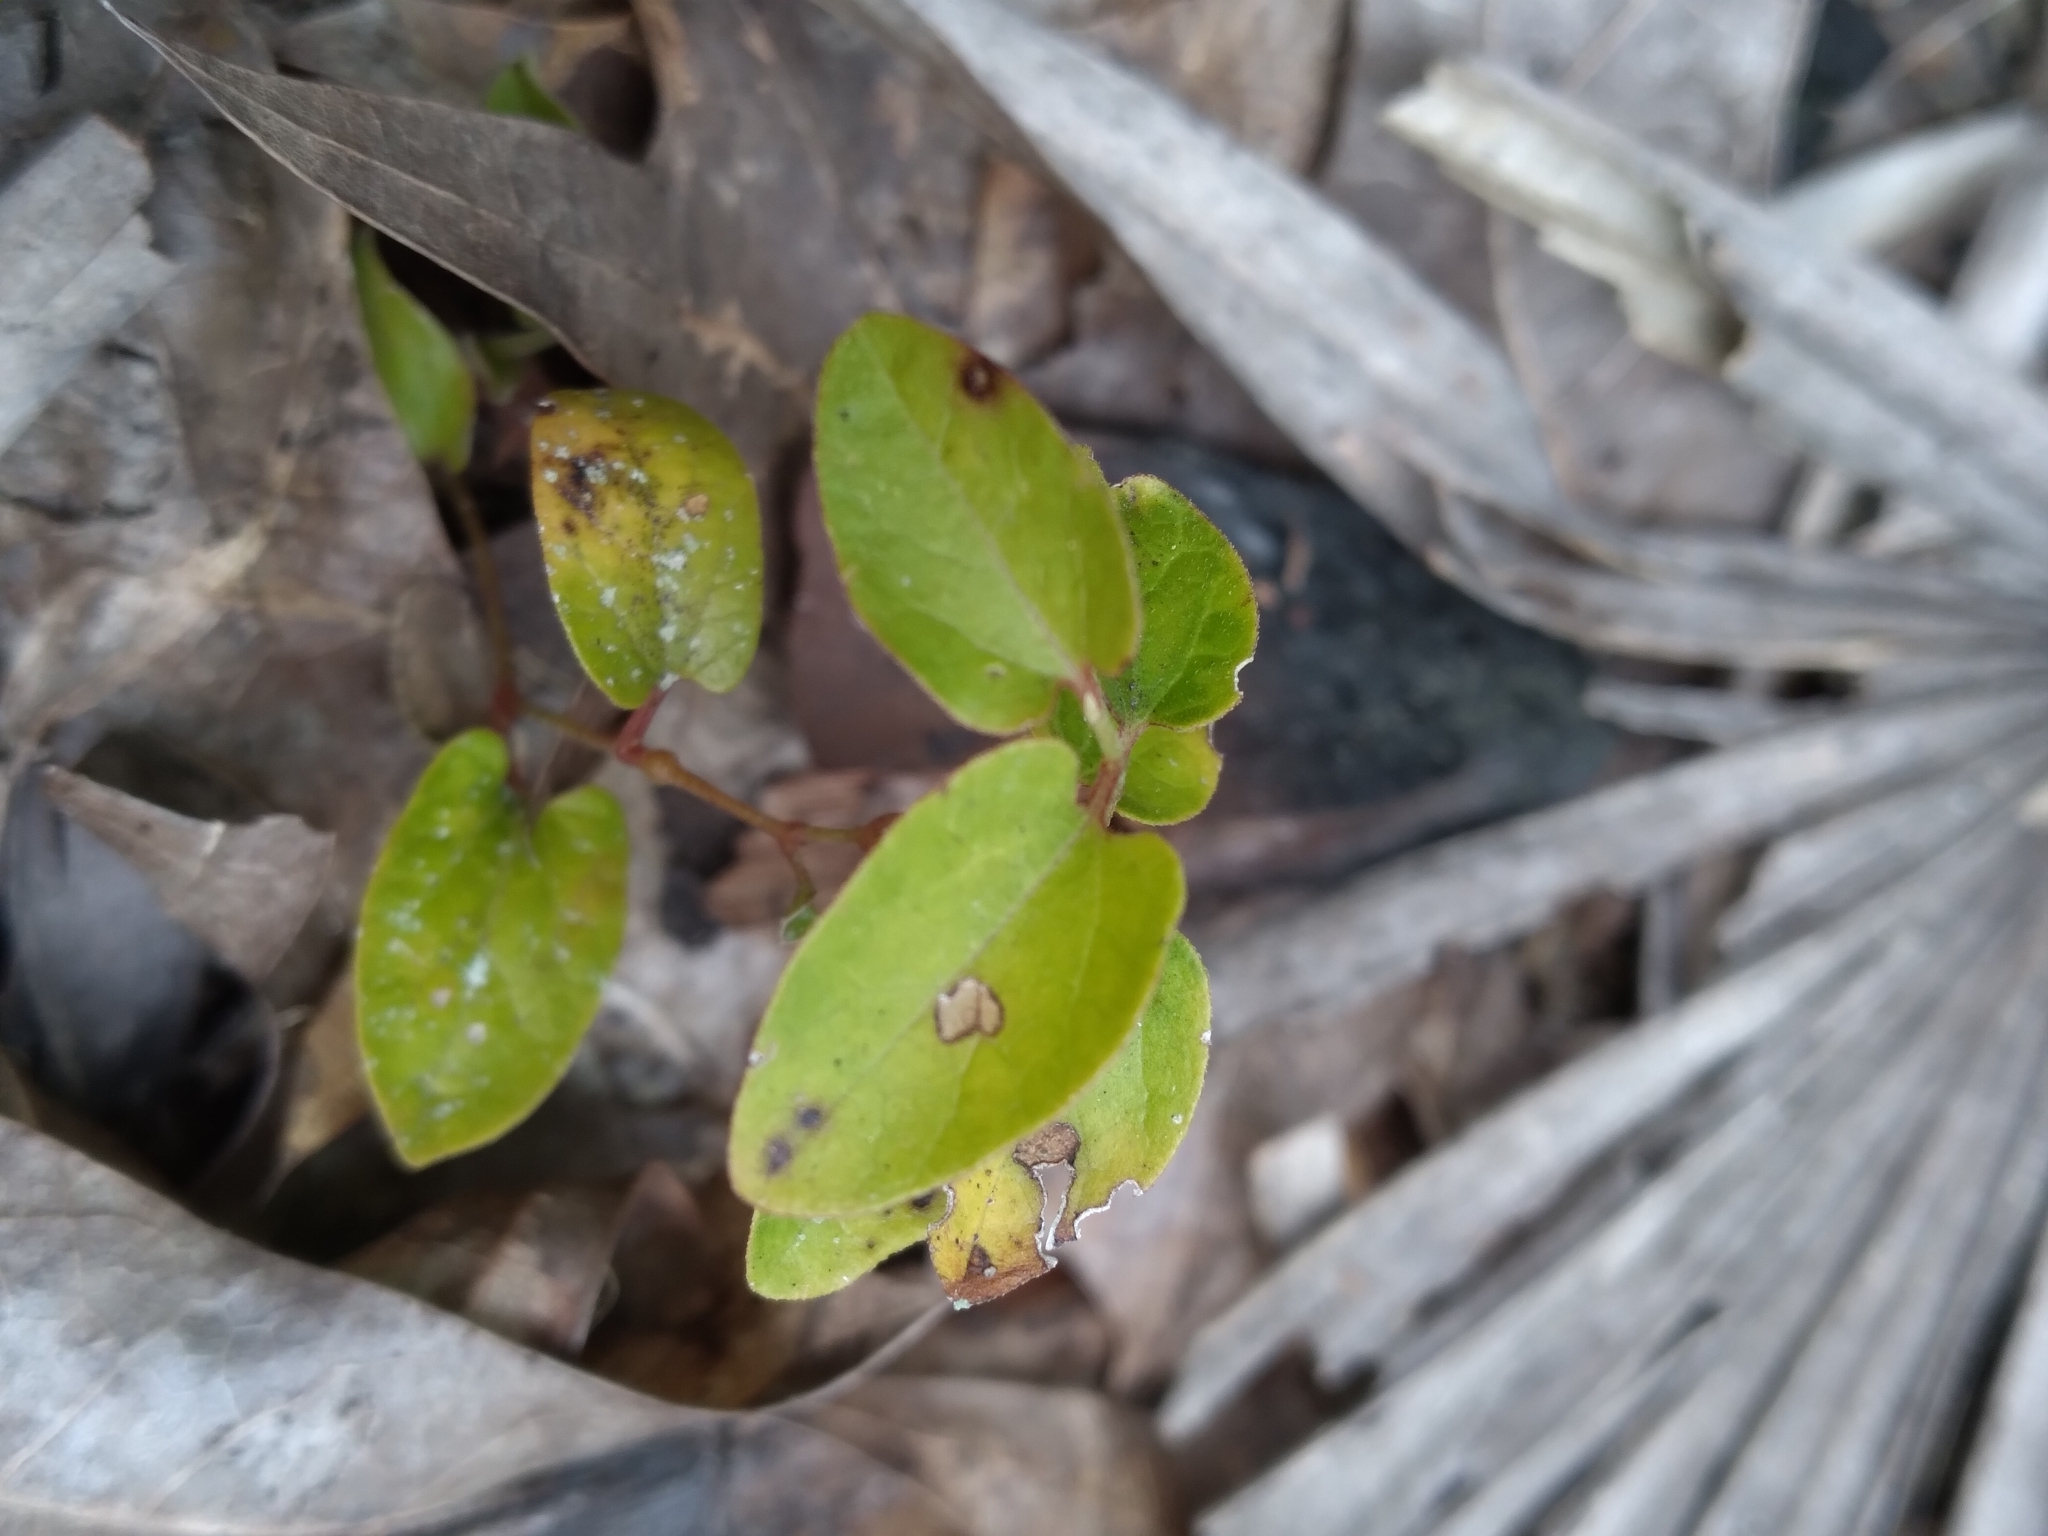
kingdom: Plantae
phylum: Tracheophyta
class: Magnoliopsida
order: Piperales
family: Aristolochiaceae
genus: Endodeca
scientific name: Endodeca serpentaria
